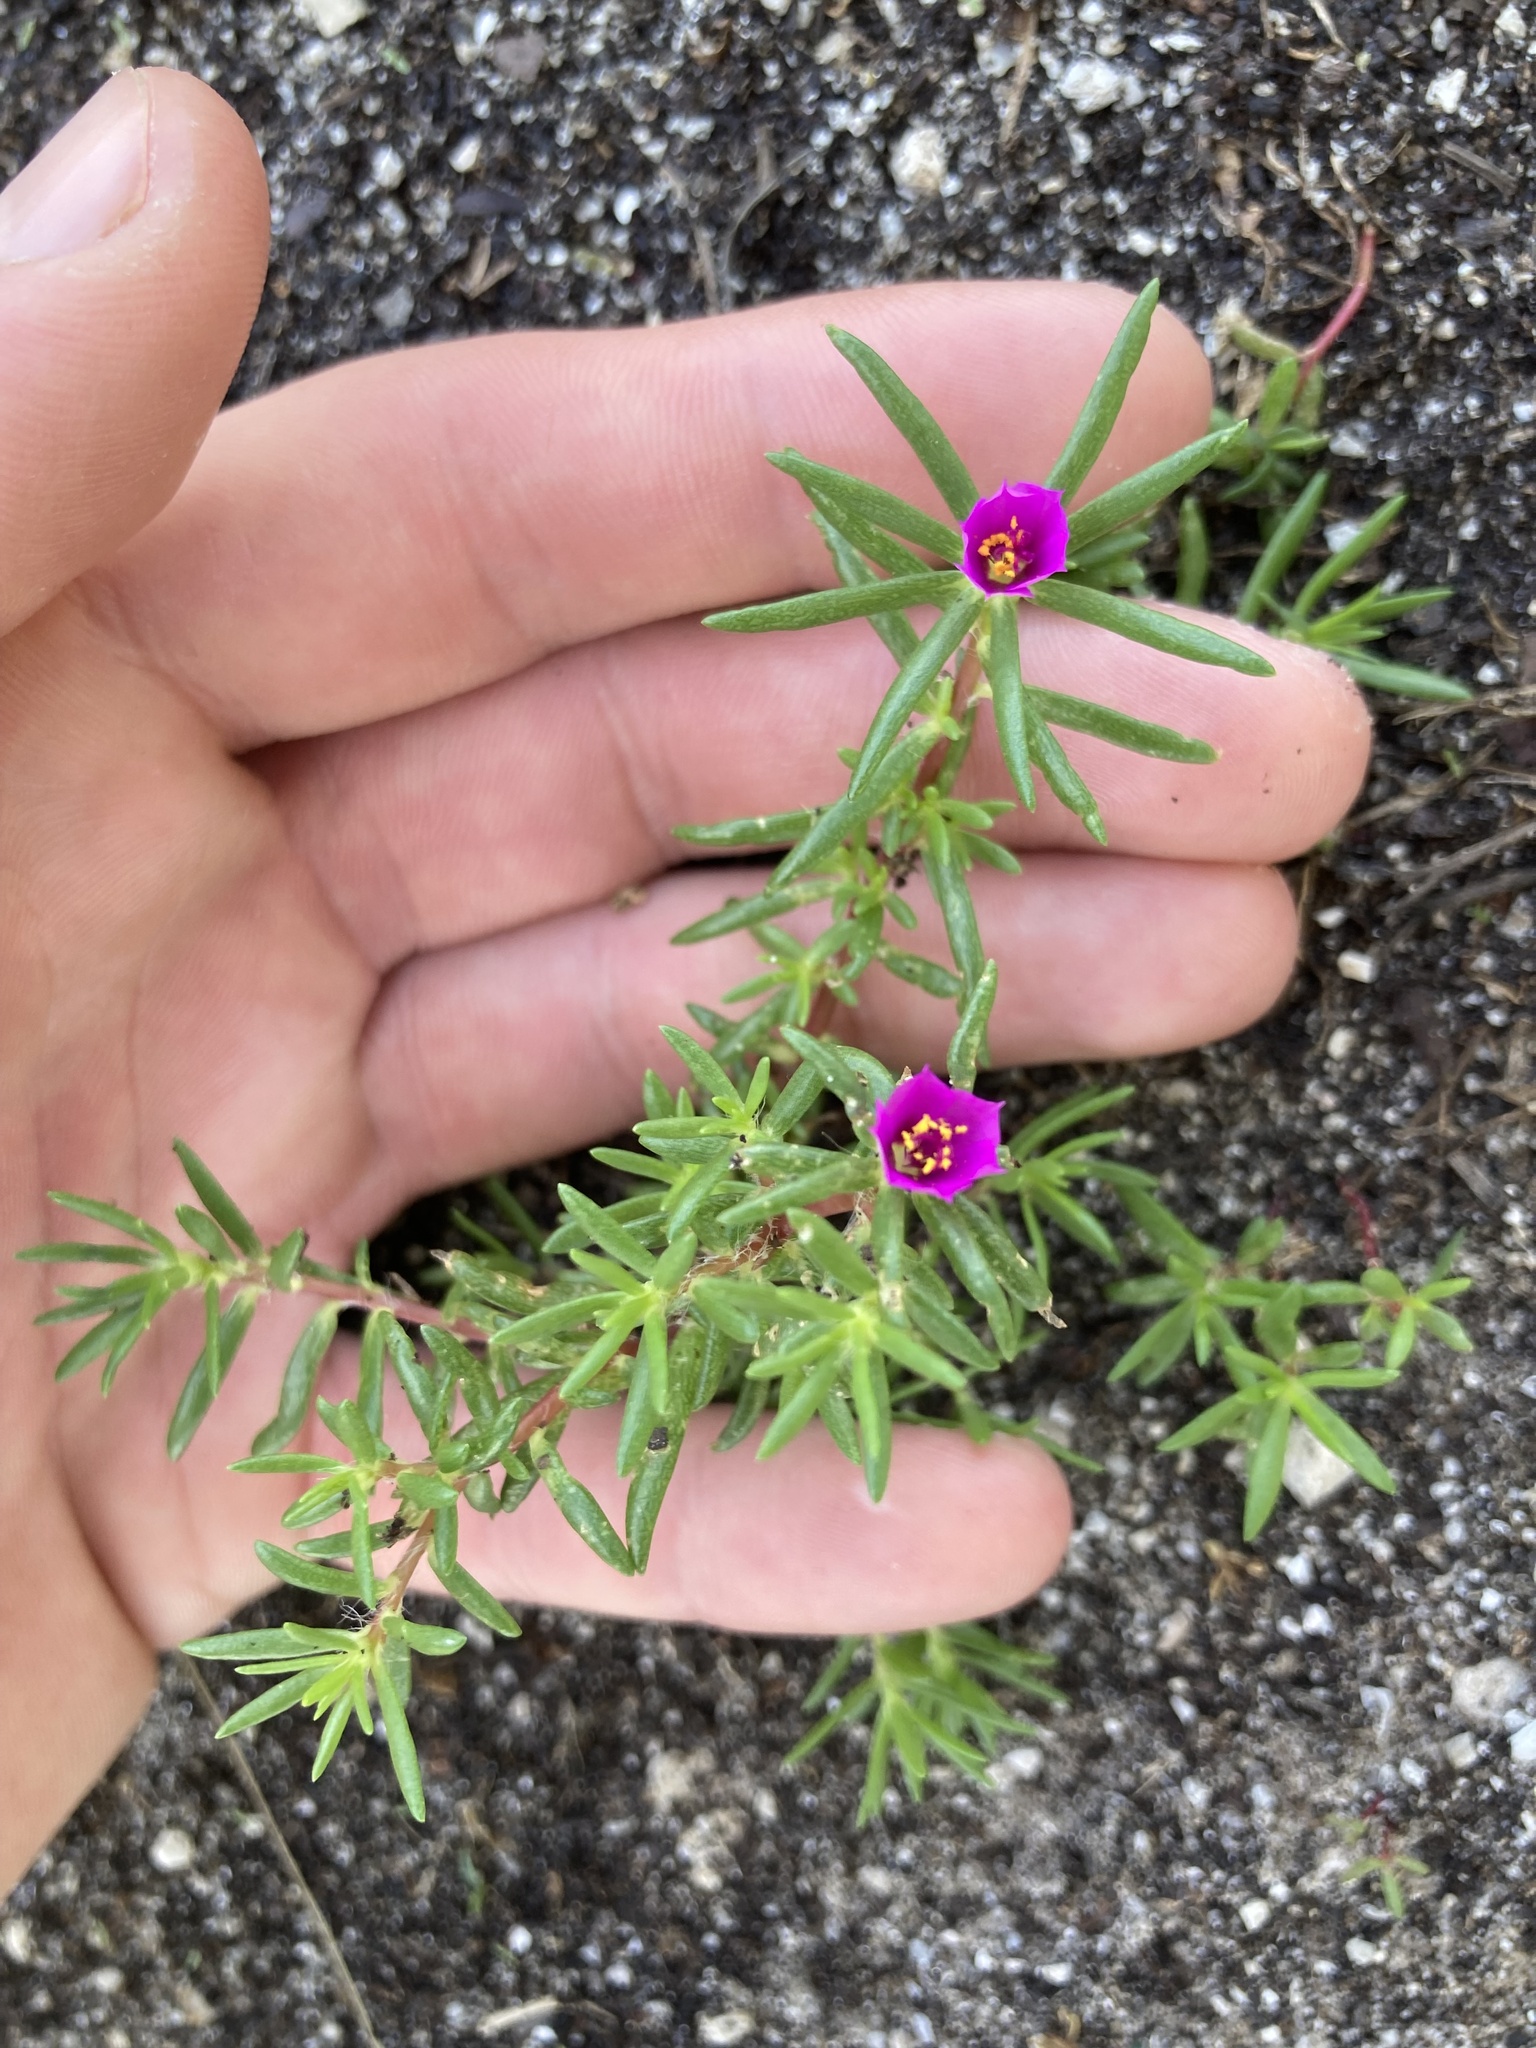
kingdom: Plantae
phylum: Tracheophyta
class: Magnoliopsida
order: Caryophyllales
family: Portulacaceae
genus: Portulaca
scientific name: Portulaca pilosa
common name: Kiss me quick
